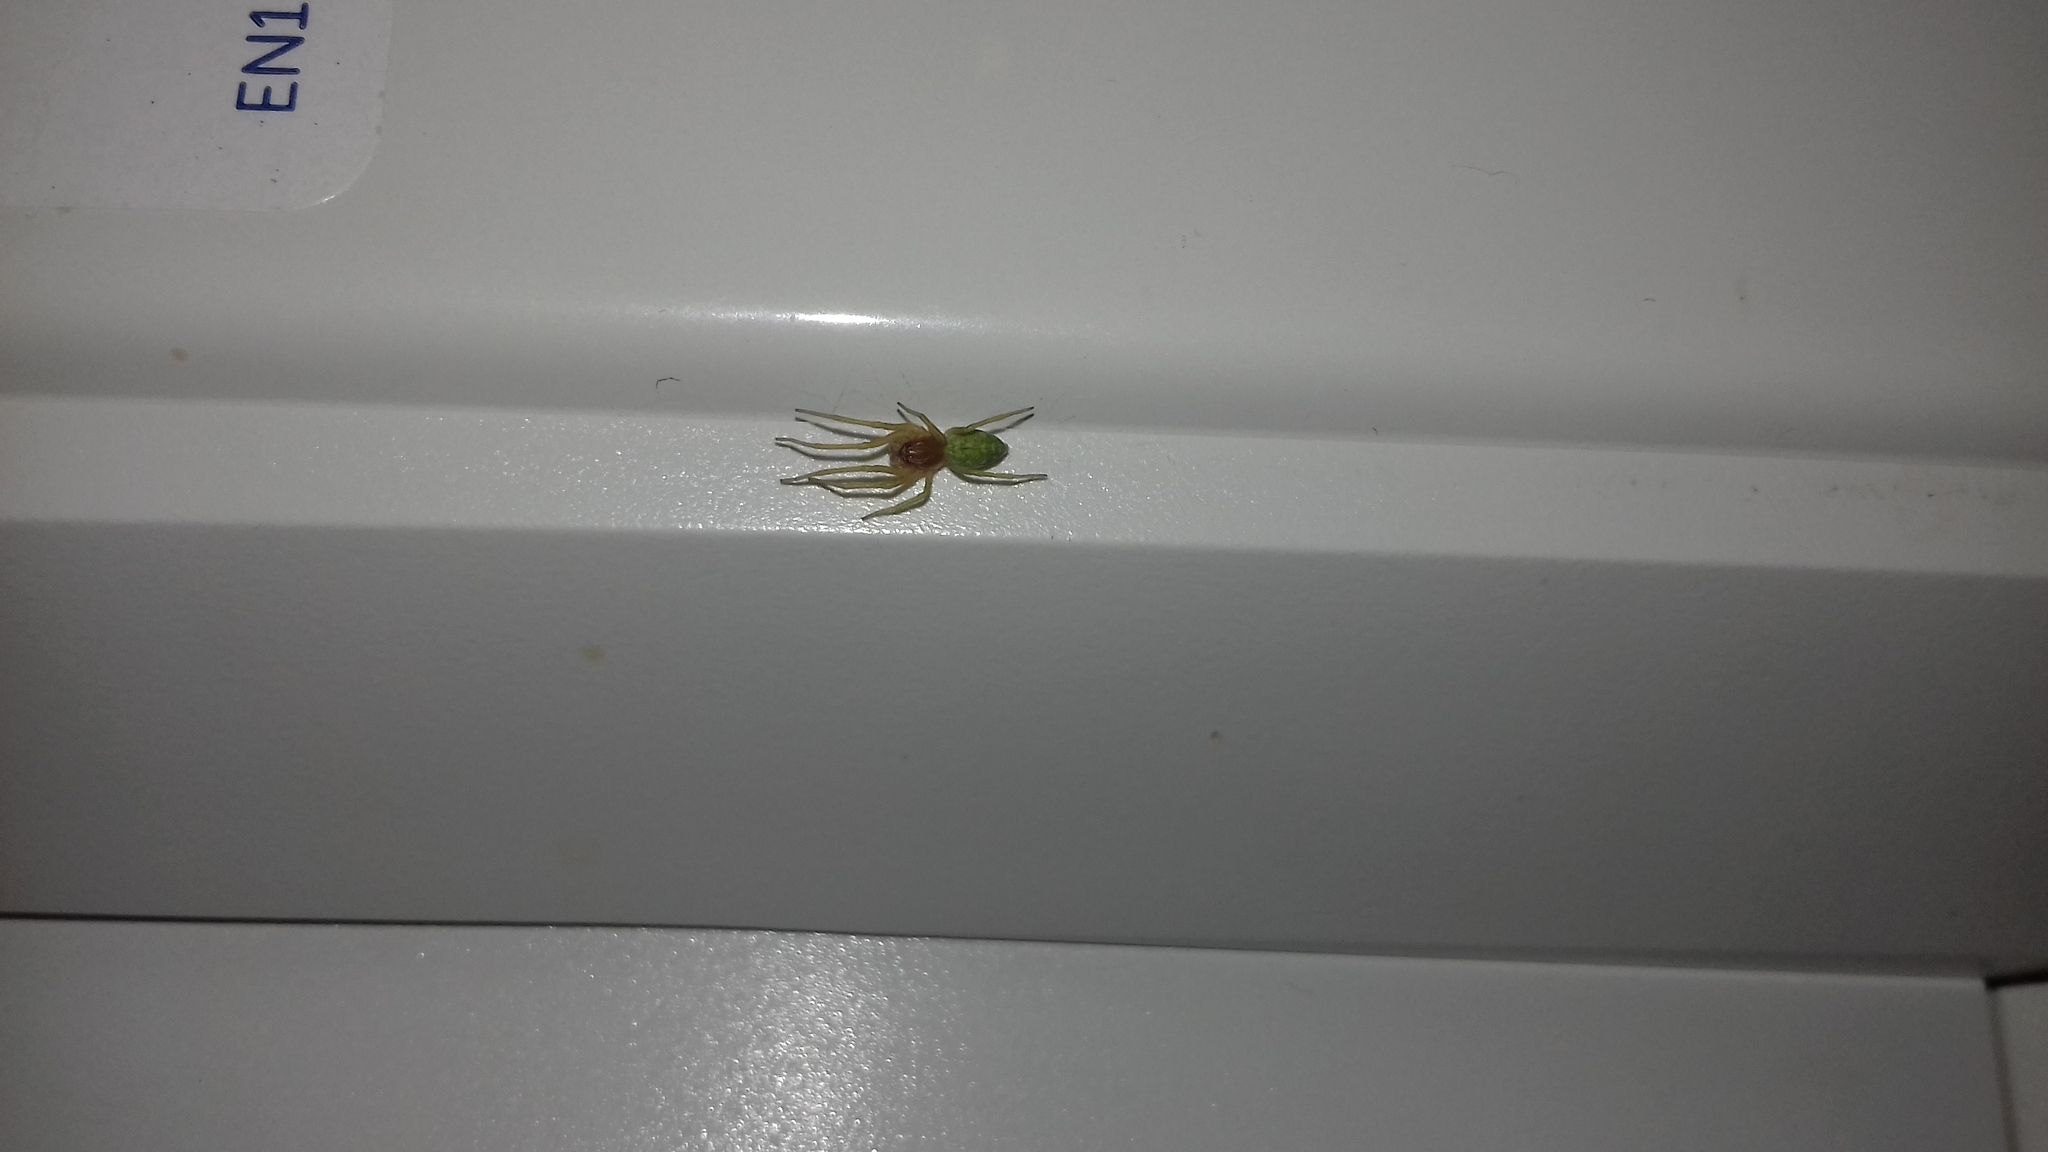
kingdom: Animalia
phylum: Arthropoda
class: Arachnida
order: Araneae
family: Dictynidae
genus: Nigma
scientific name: Nigma walckenaeri
